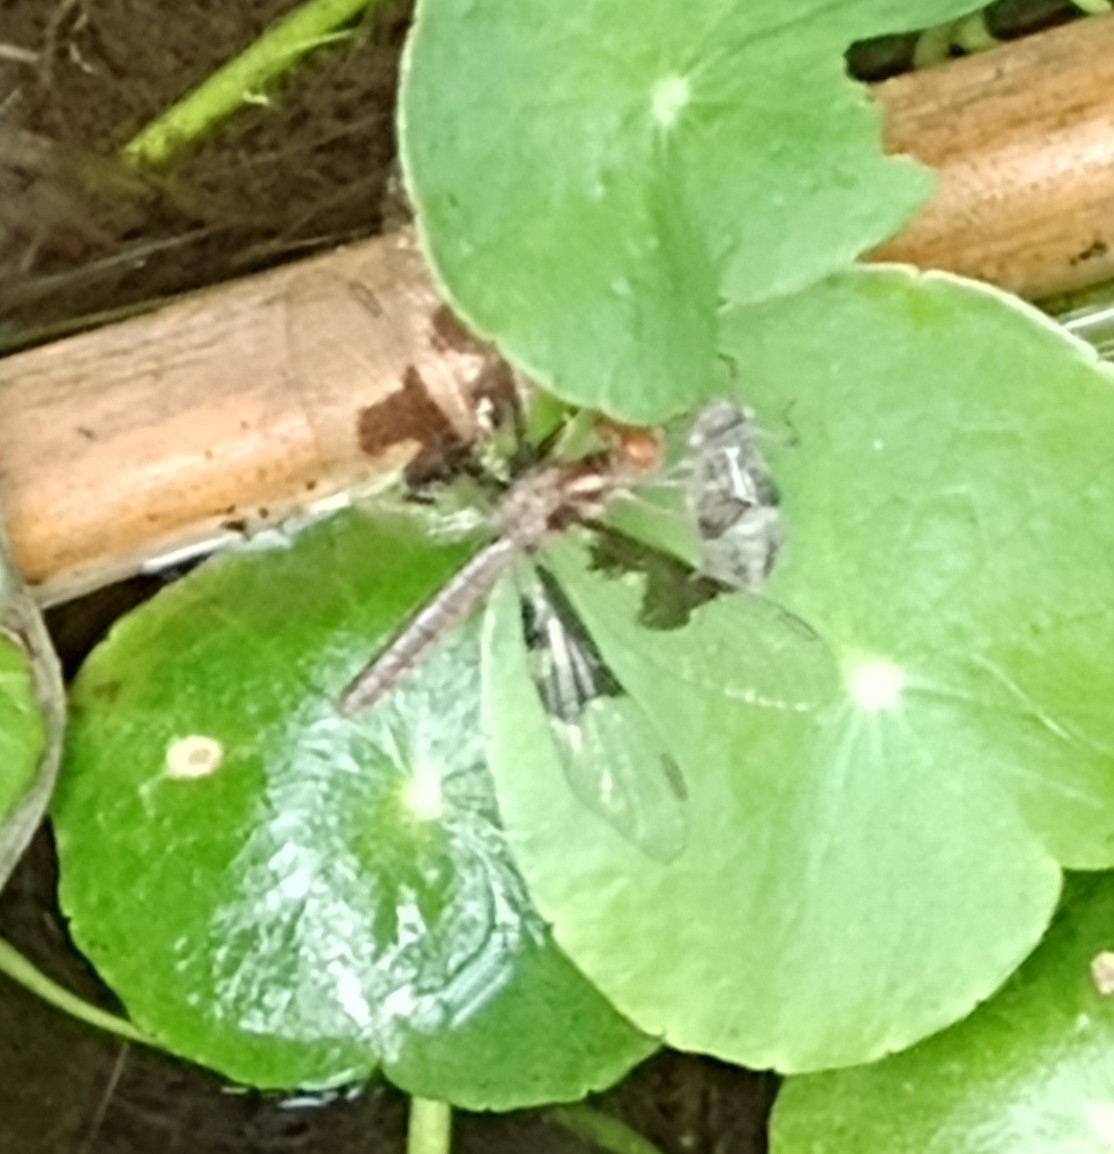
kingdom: Animalia
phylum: Arthropoda
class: Insecta
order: Odonata
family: Libellulidae
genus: Perithemis
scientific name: Perithemis tenera
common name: Eastern amberwing
